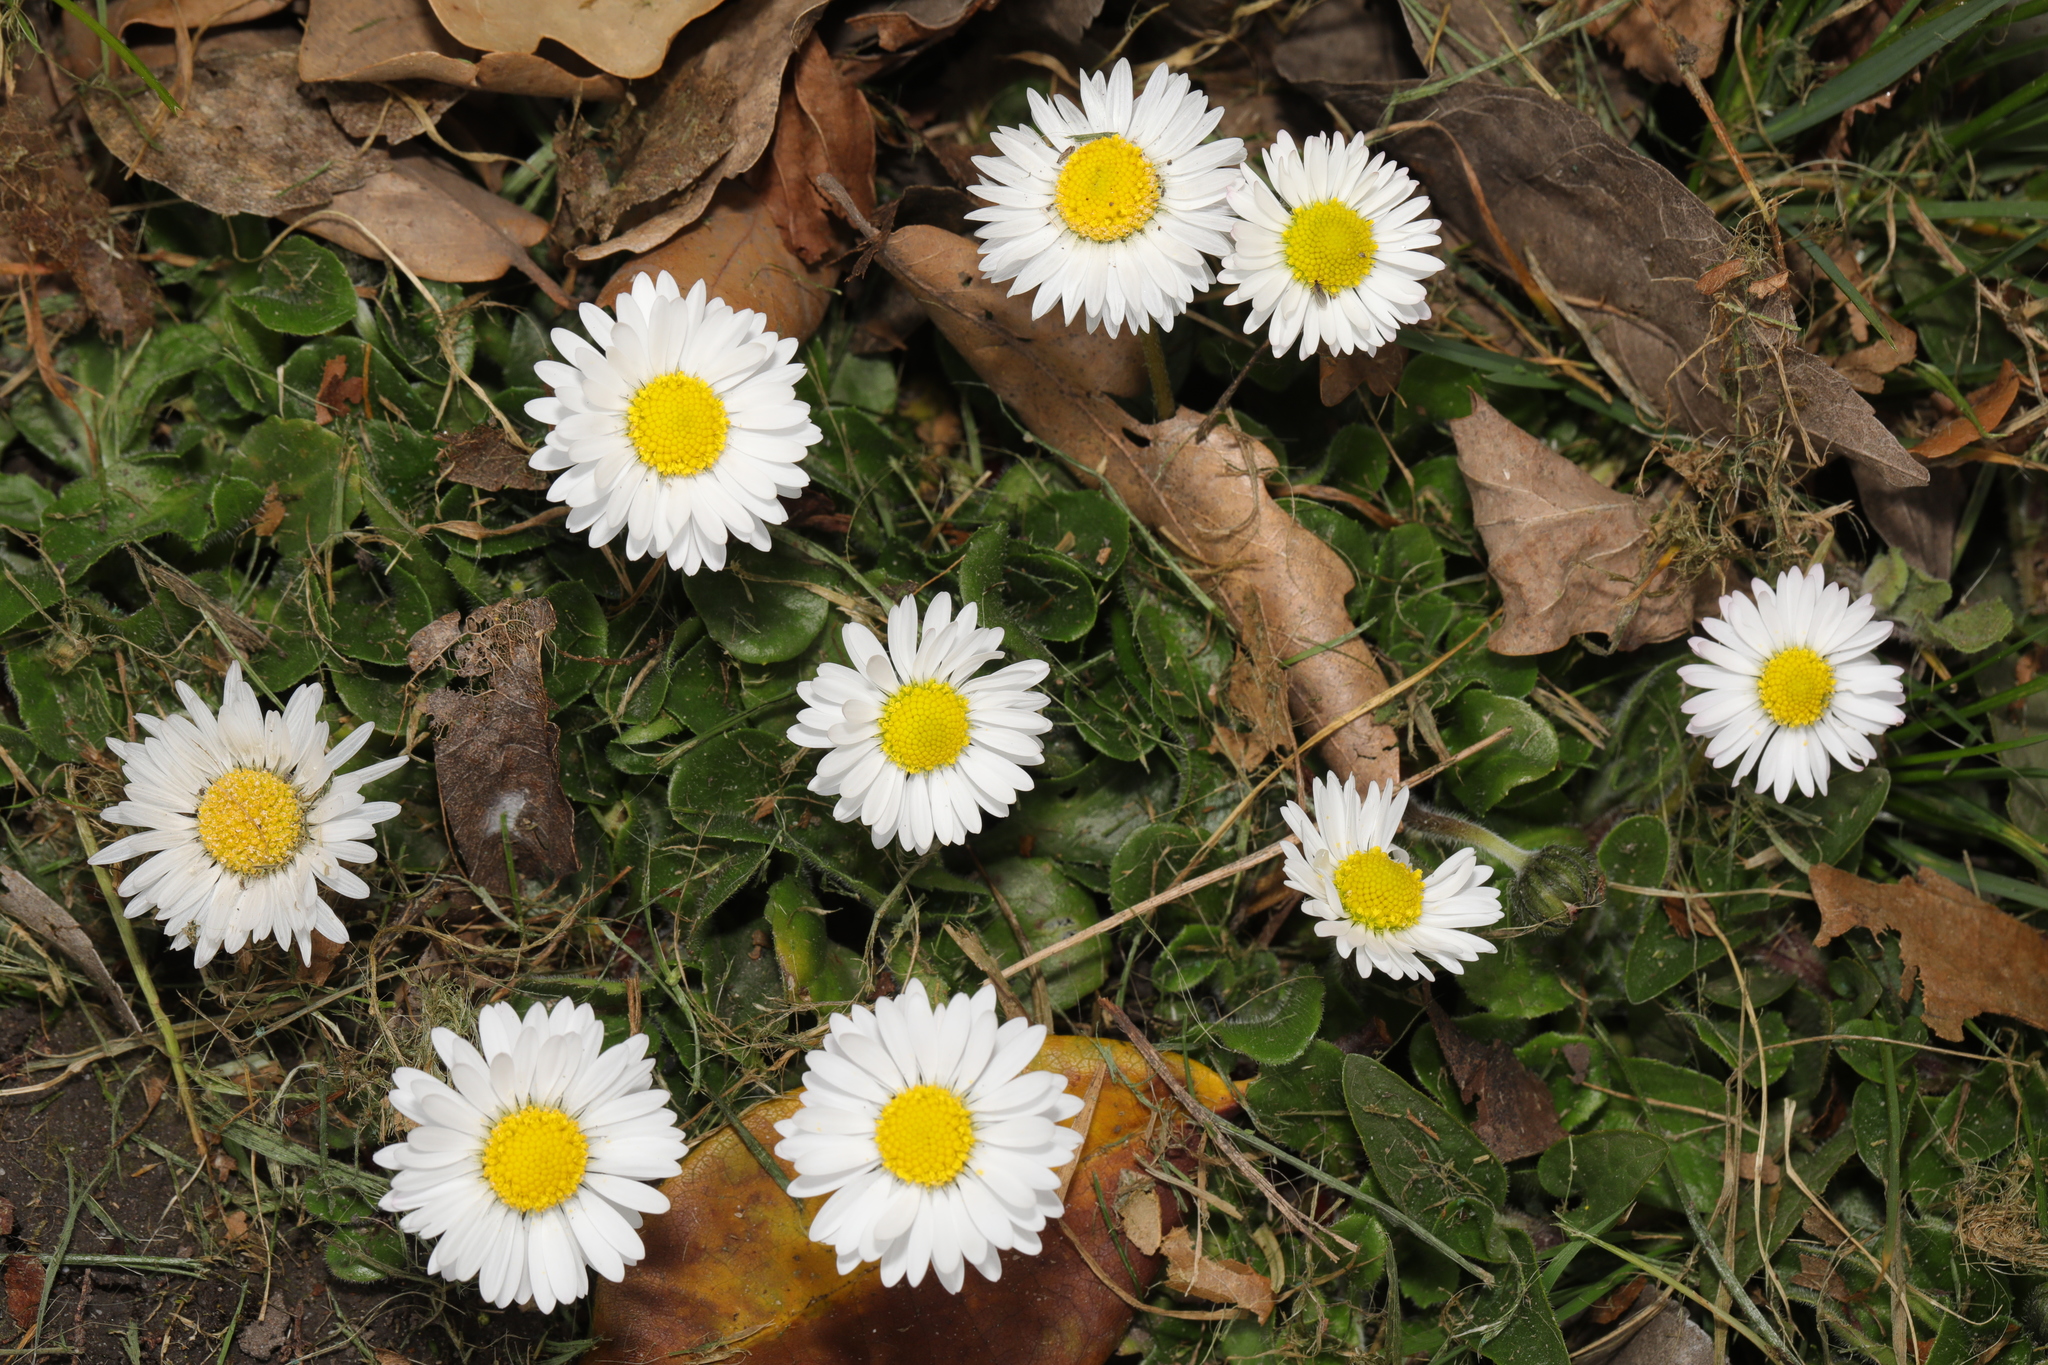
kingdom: Plantae
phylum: Tracheophyta
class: Magnoliopsida
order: Asterales
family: Asteraceae
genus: Bellis
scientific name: Bellis perennis
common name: Lawndaisy
